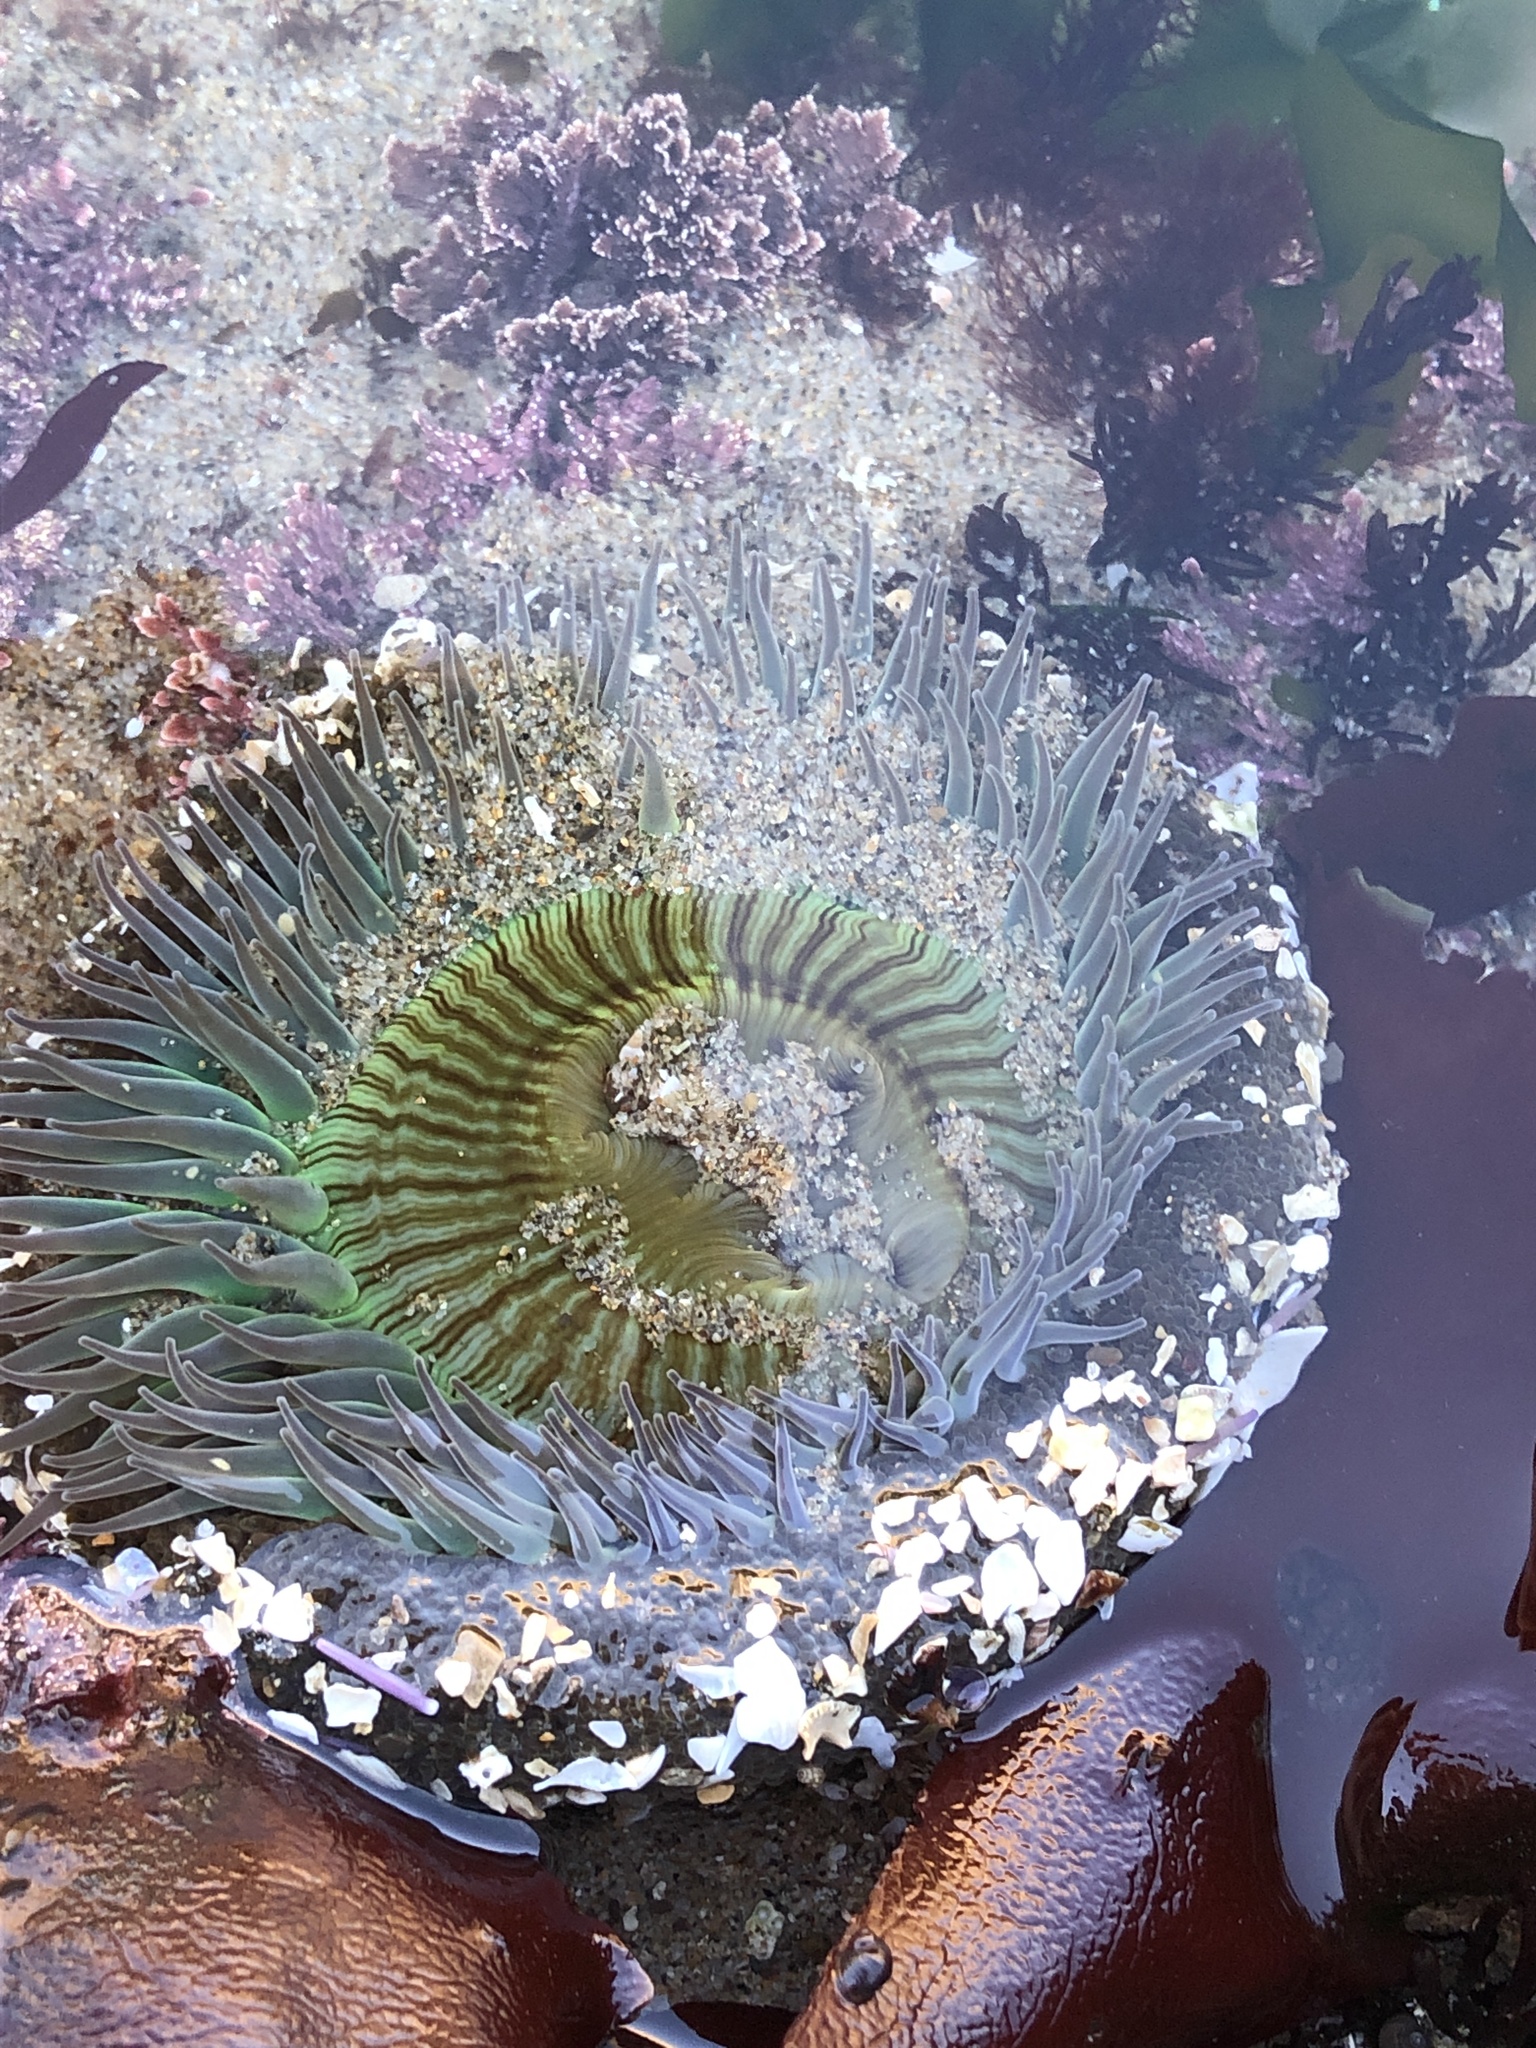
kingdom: Animalia
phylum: Cnidaria
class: Anthozoa
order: Actiniaria
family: Actiniidae
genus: Anthopleura
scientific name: Anthopleura sola
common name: Sun anemone
